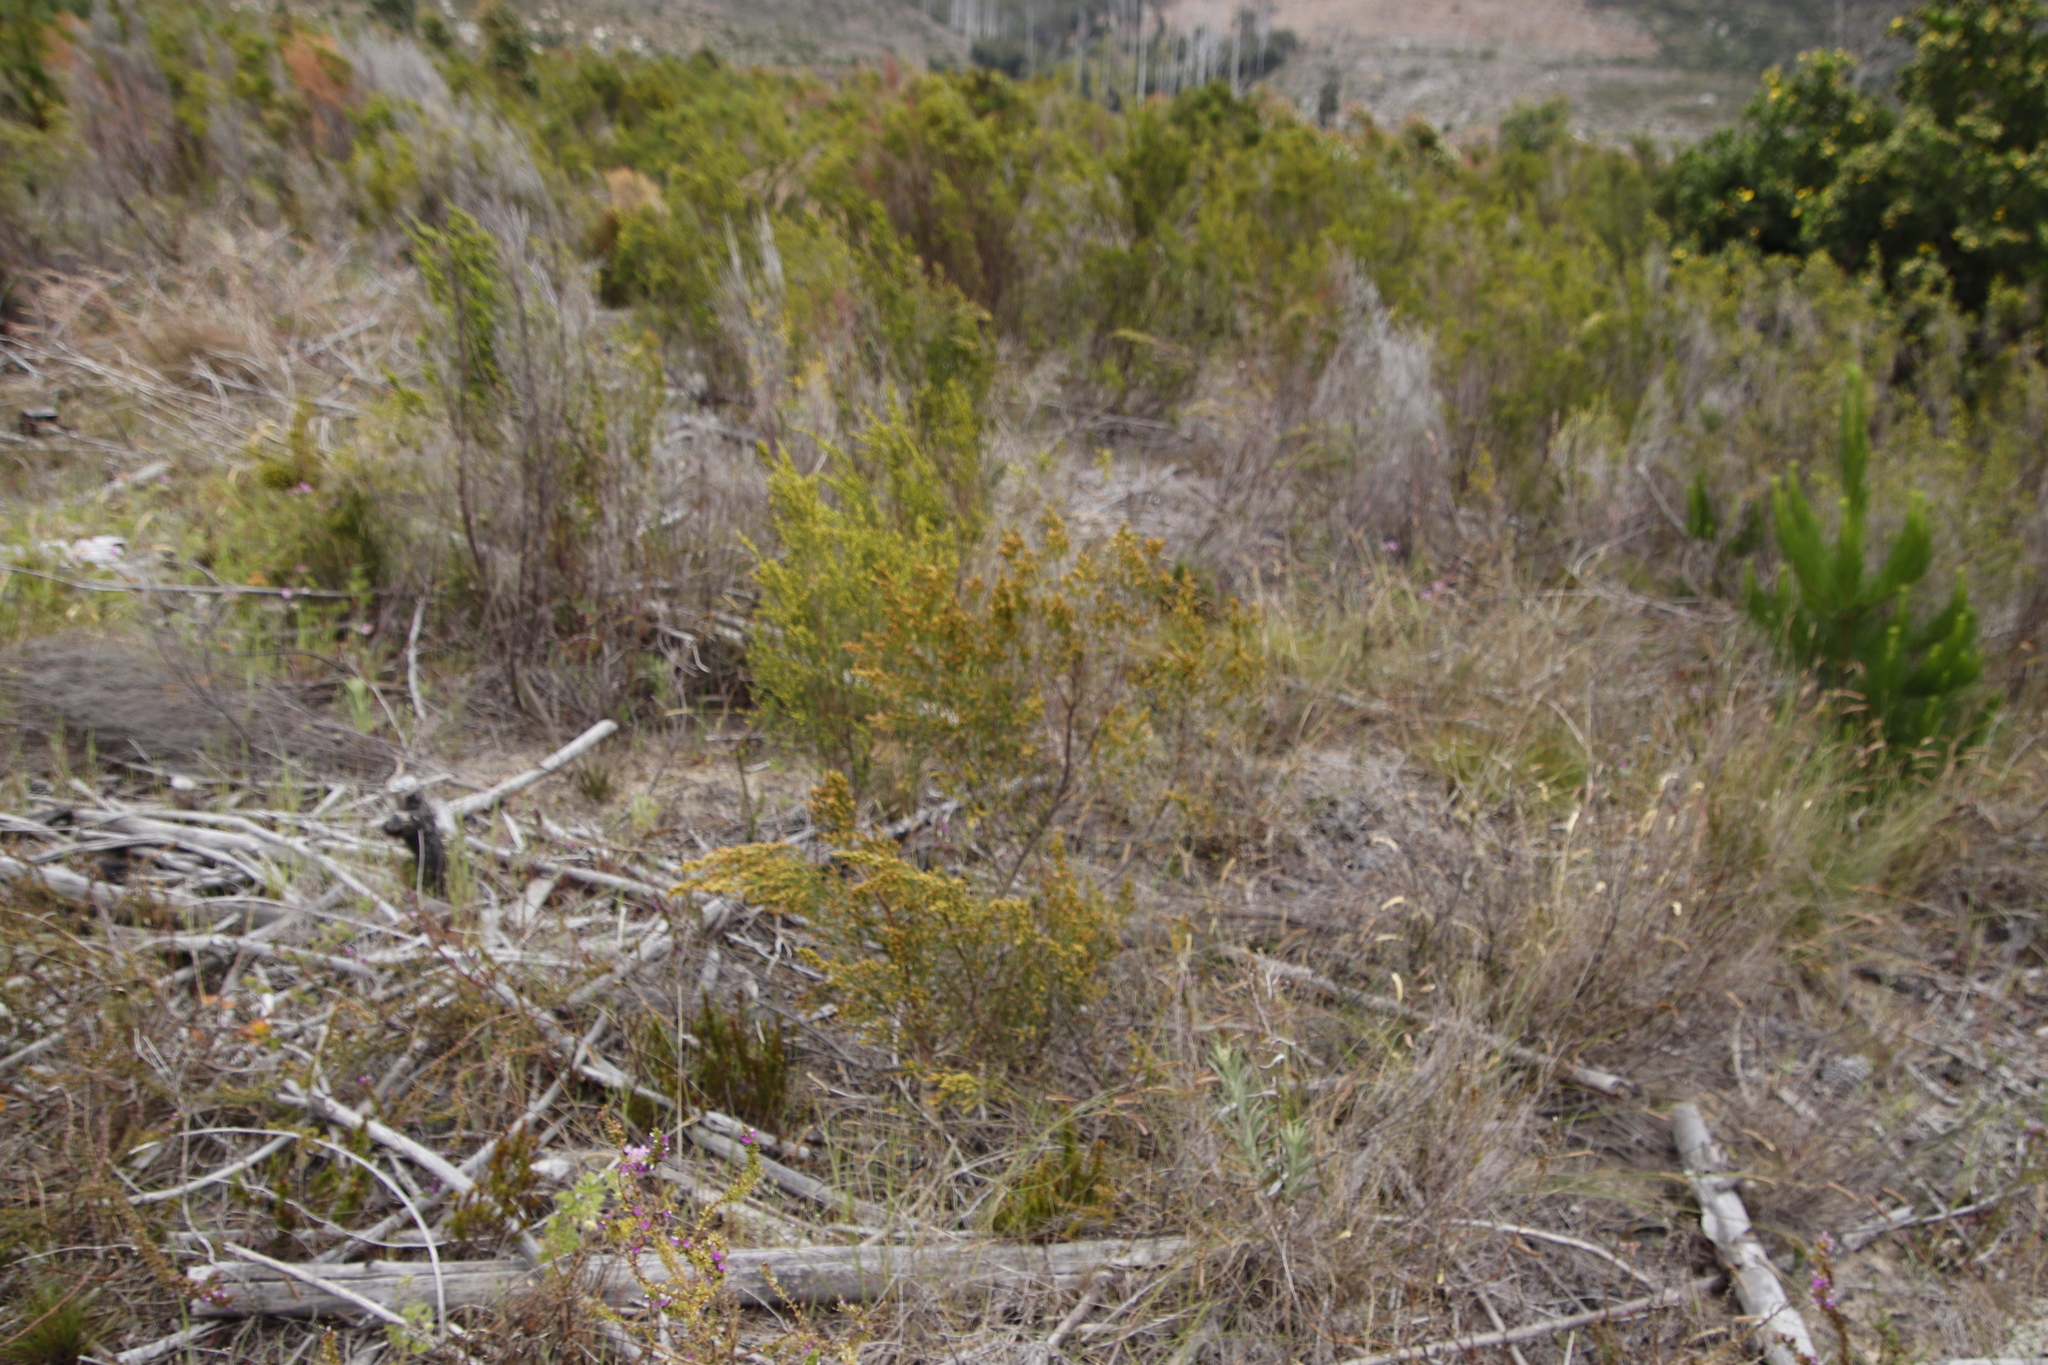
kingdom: Plantae
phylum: Tracheophyta
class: Magnoliopsida
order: Malvales
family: Thymelaeaceae
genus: Passerina
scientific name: Passerina corymbosa
